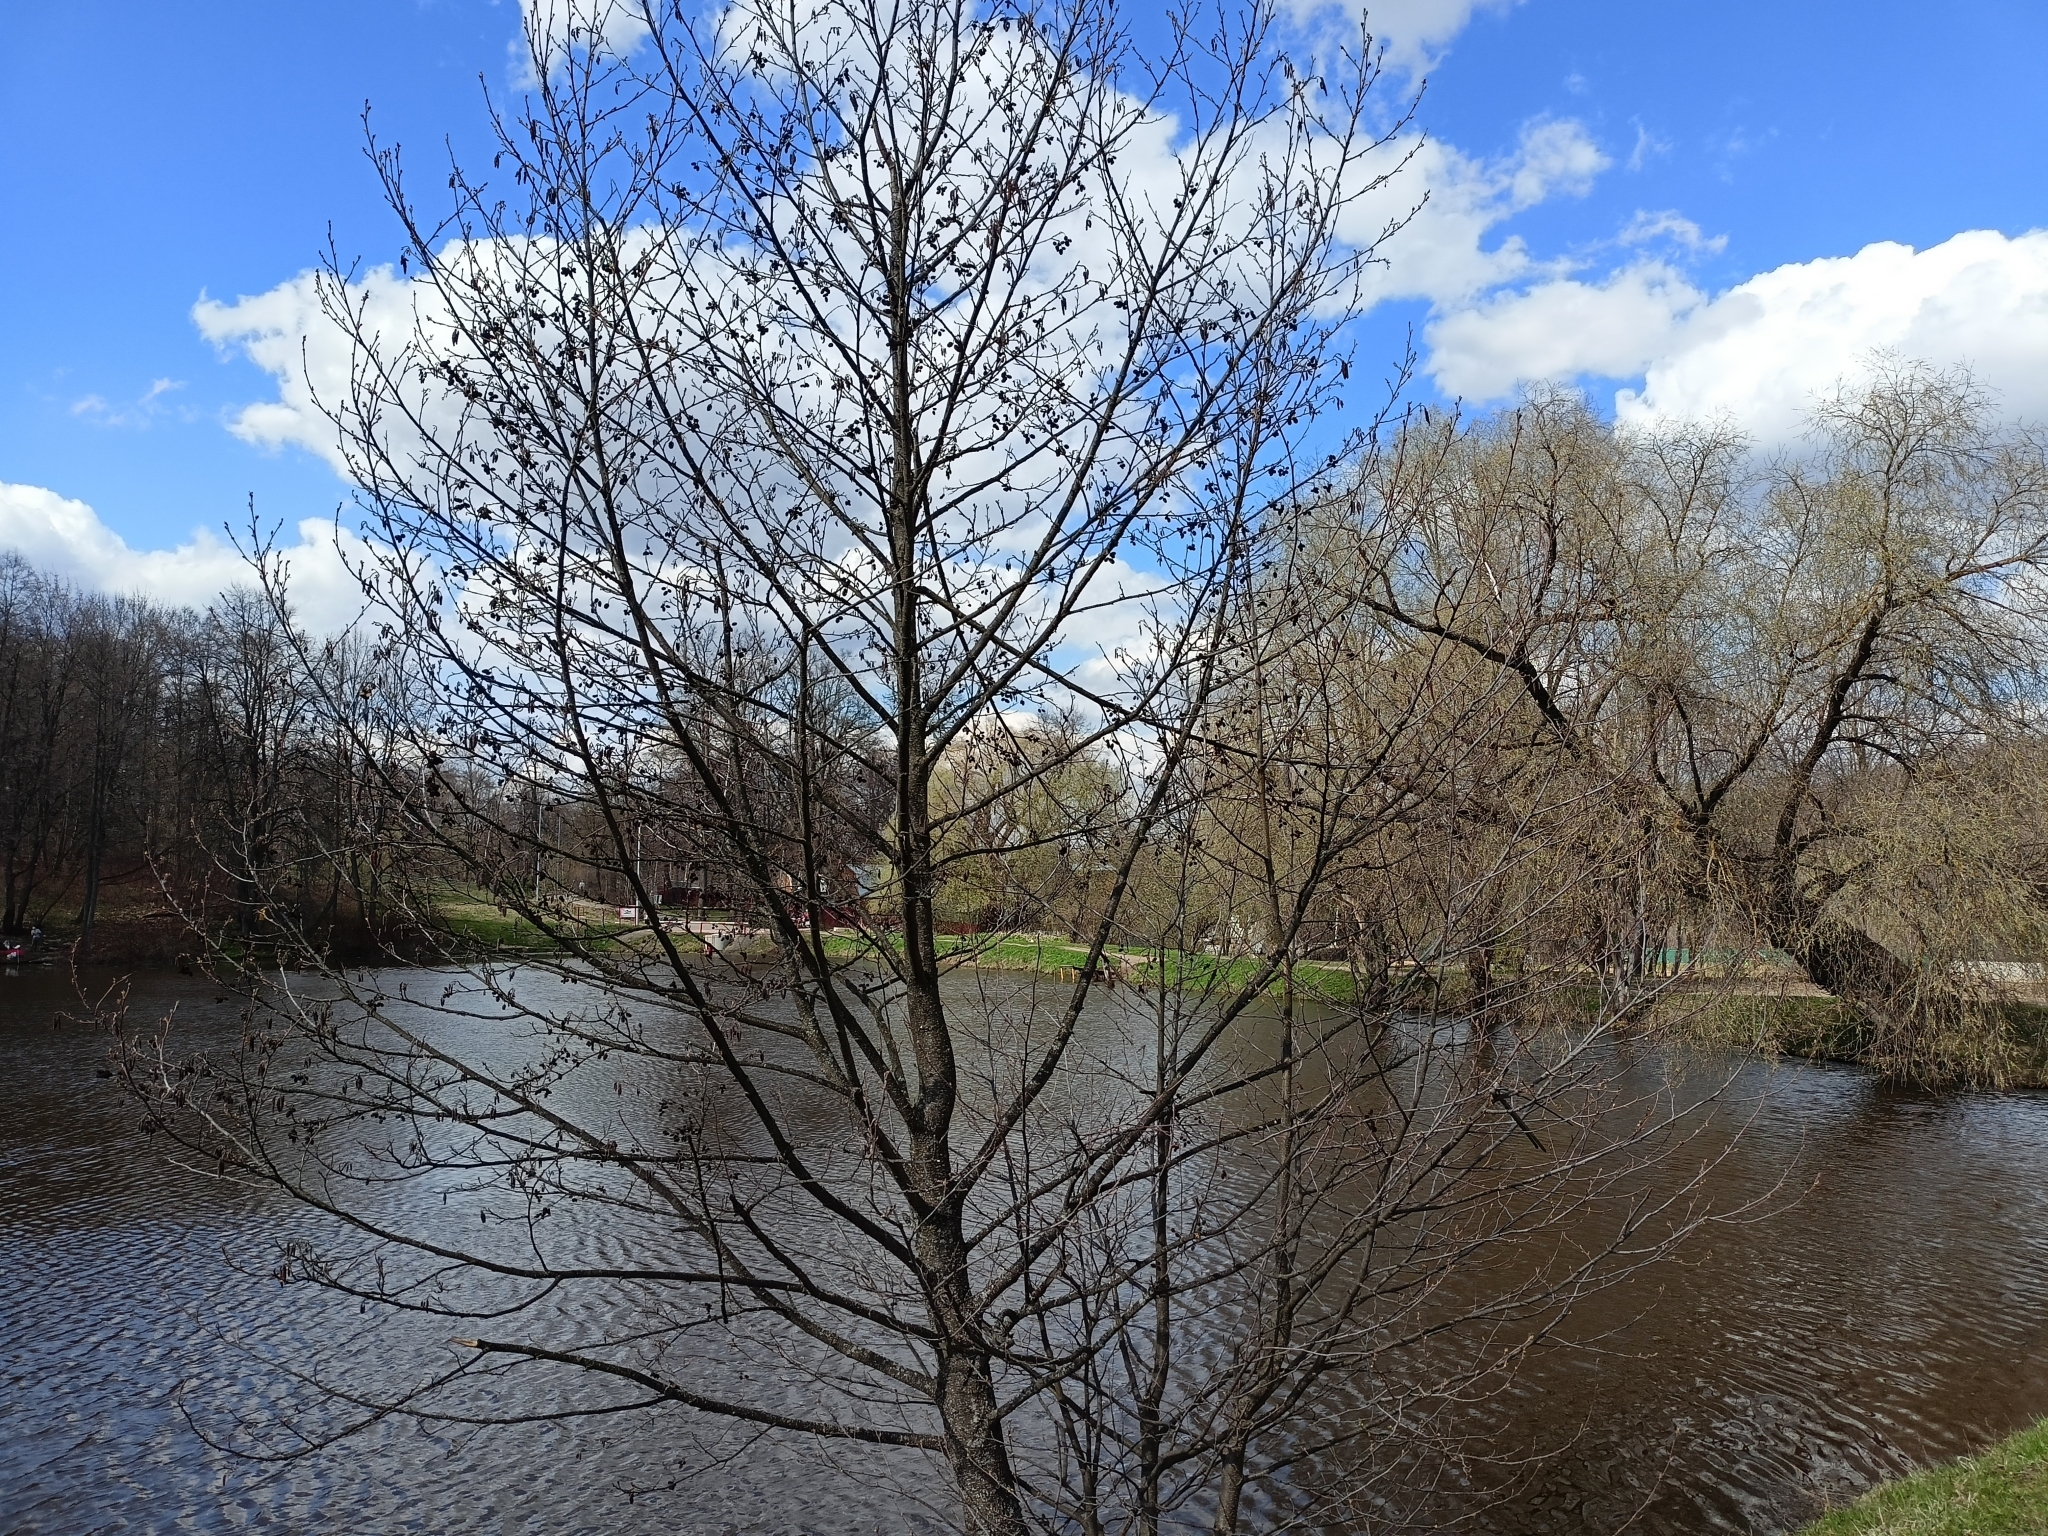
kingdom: Plantae
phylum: Tracheophyta
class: Magnoliopsida
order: Fagales
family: Betulaceae
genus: Alnus
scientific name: Alnus glutinosa
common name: Black alder
